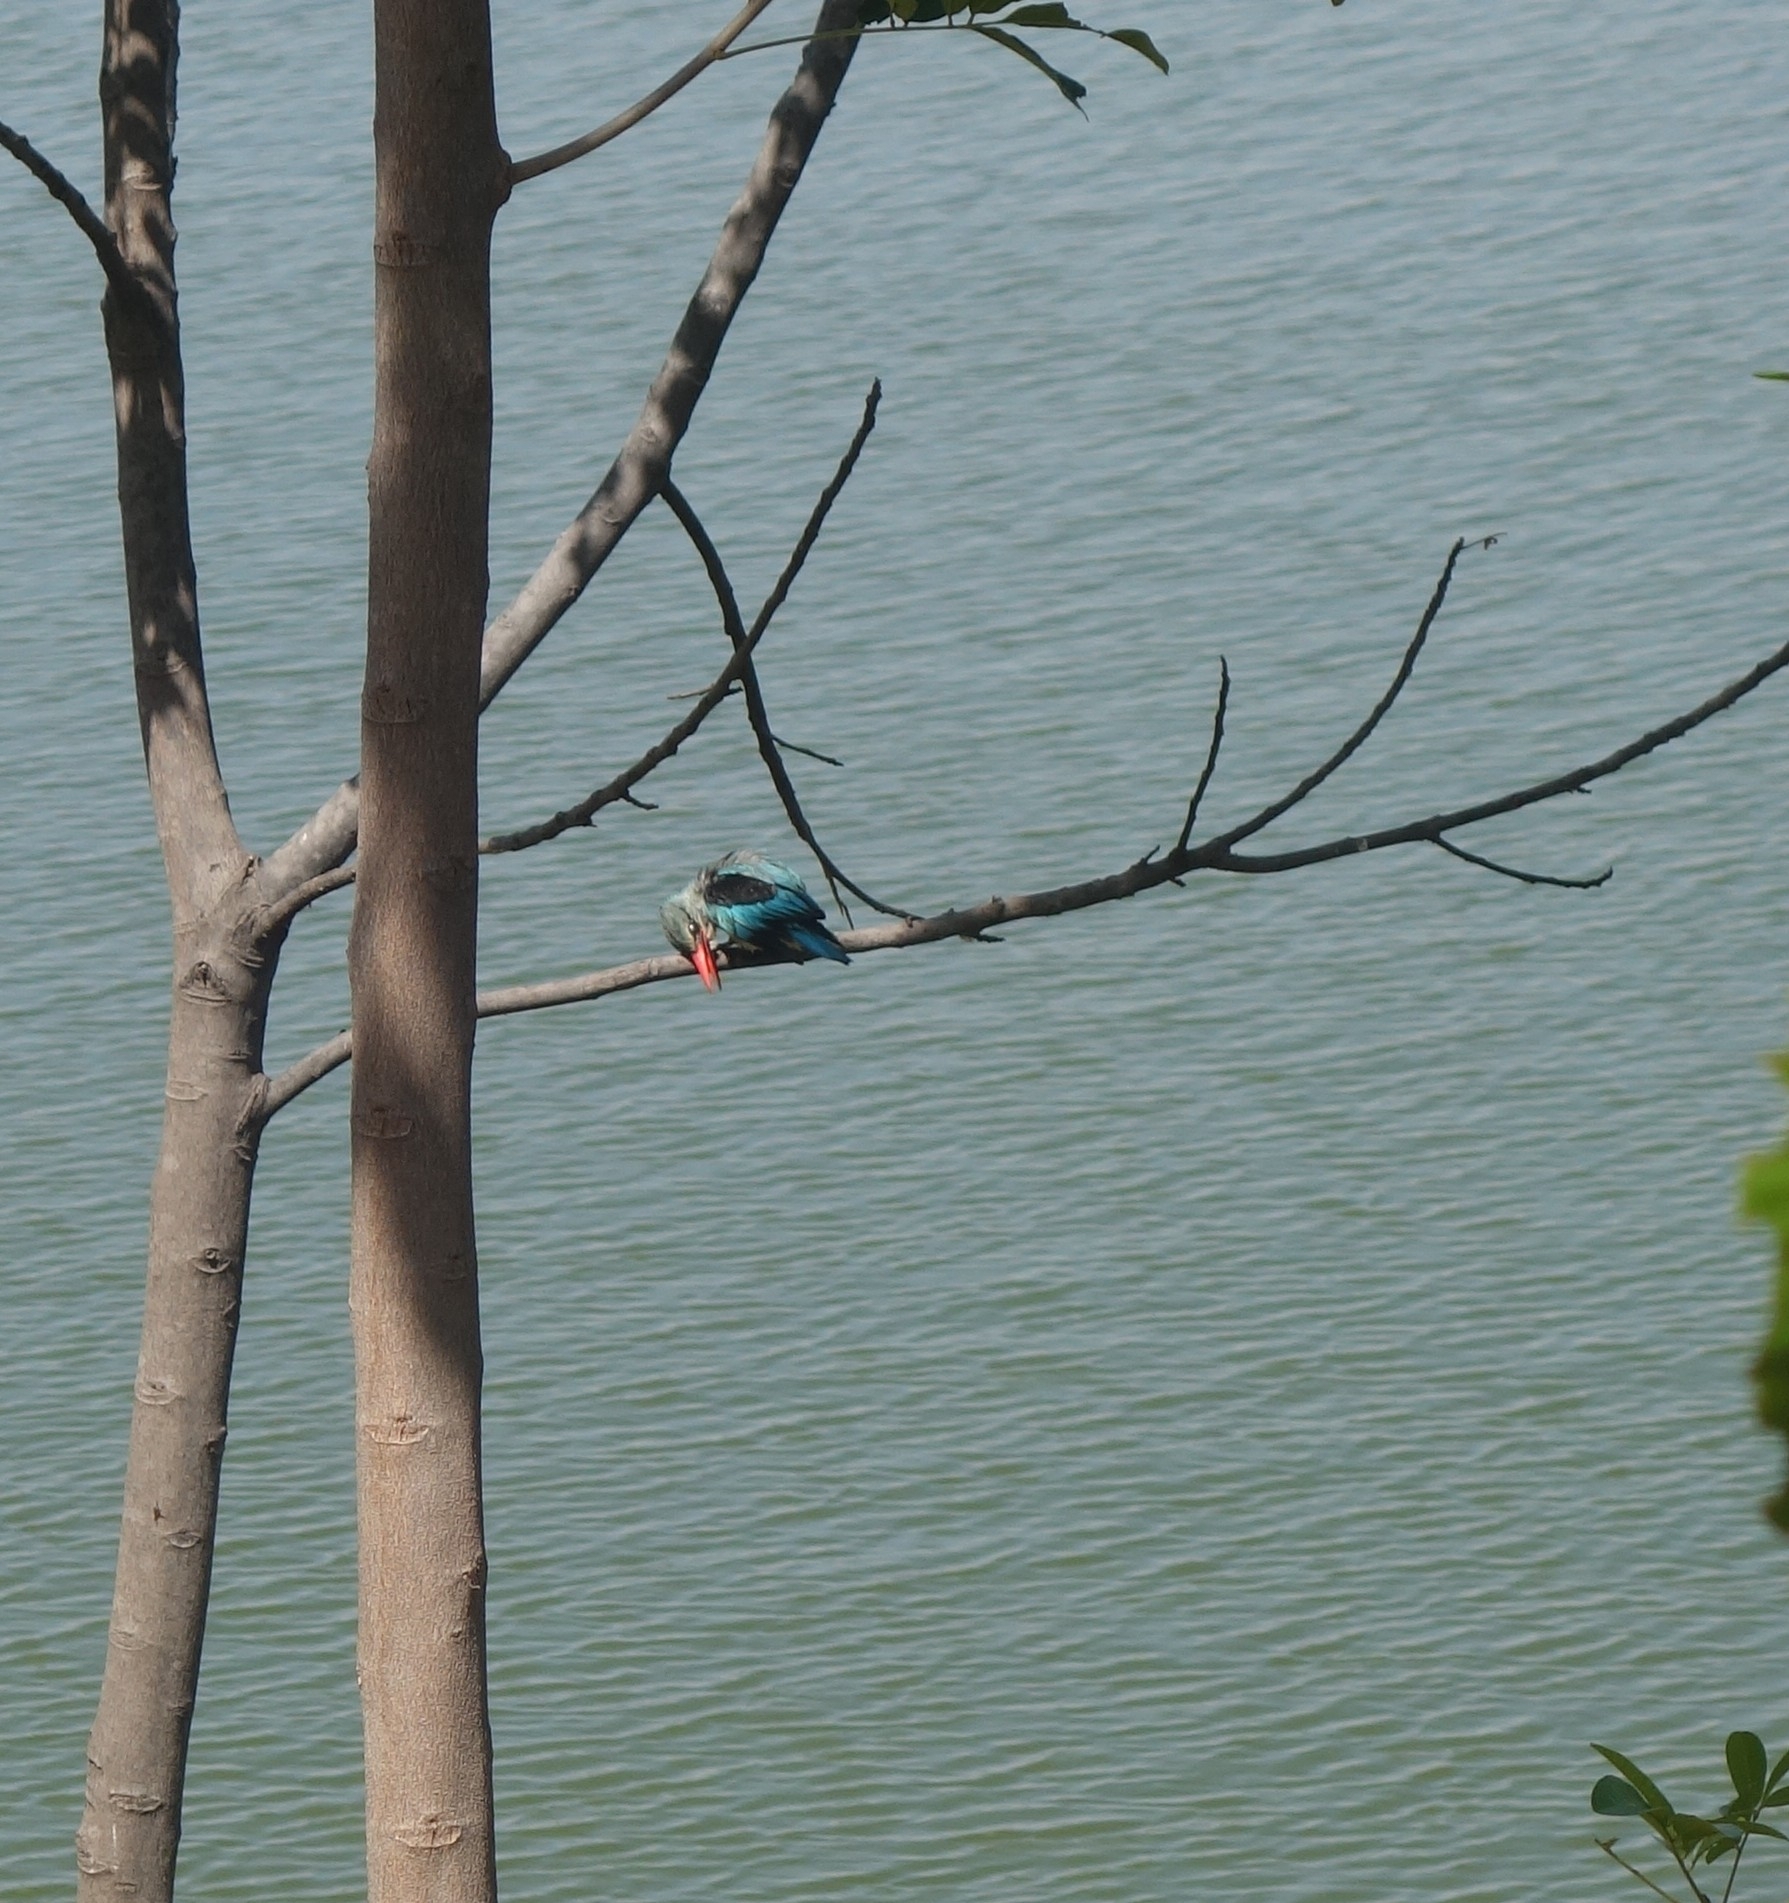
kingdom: Animalia
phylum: Chordata
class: Aves
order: Coraciiformes
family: Alcedinidae
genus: Halcyon
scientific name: Halcyon senegalensis
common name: Woodland kingfisher
